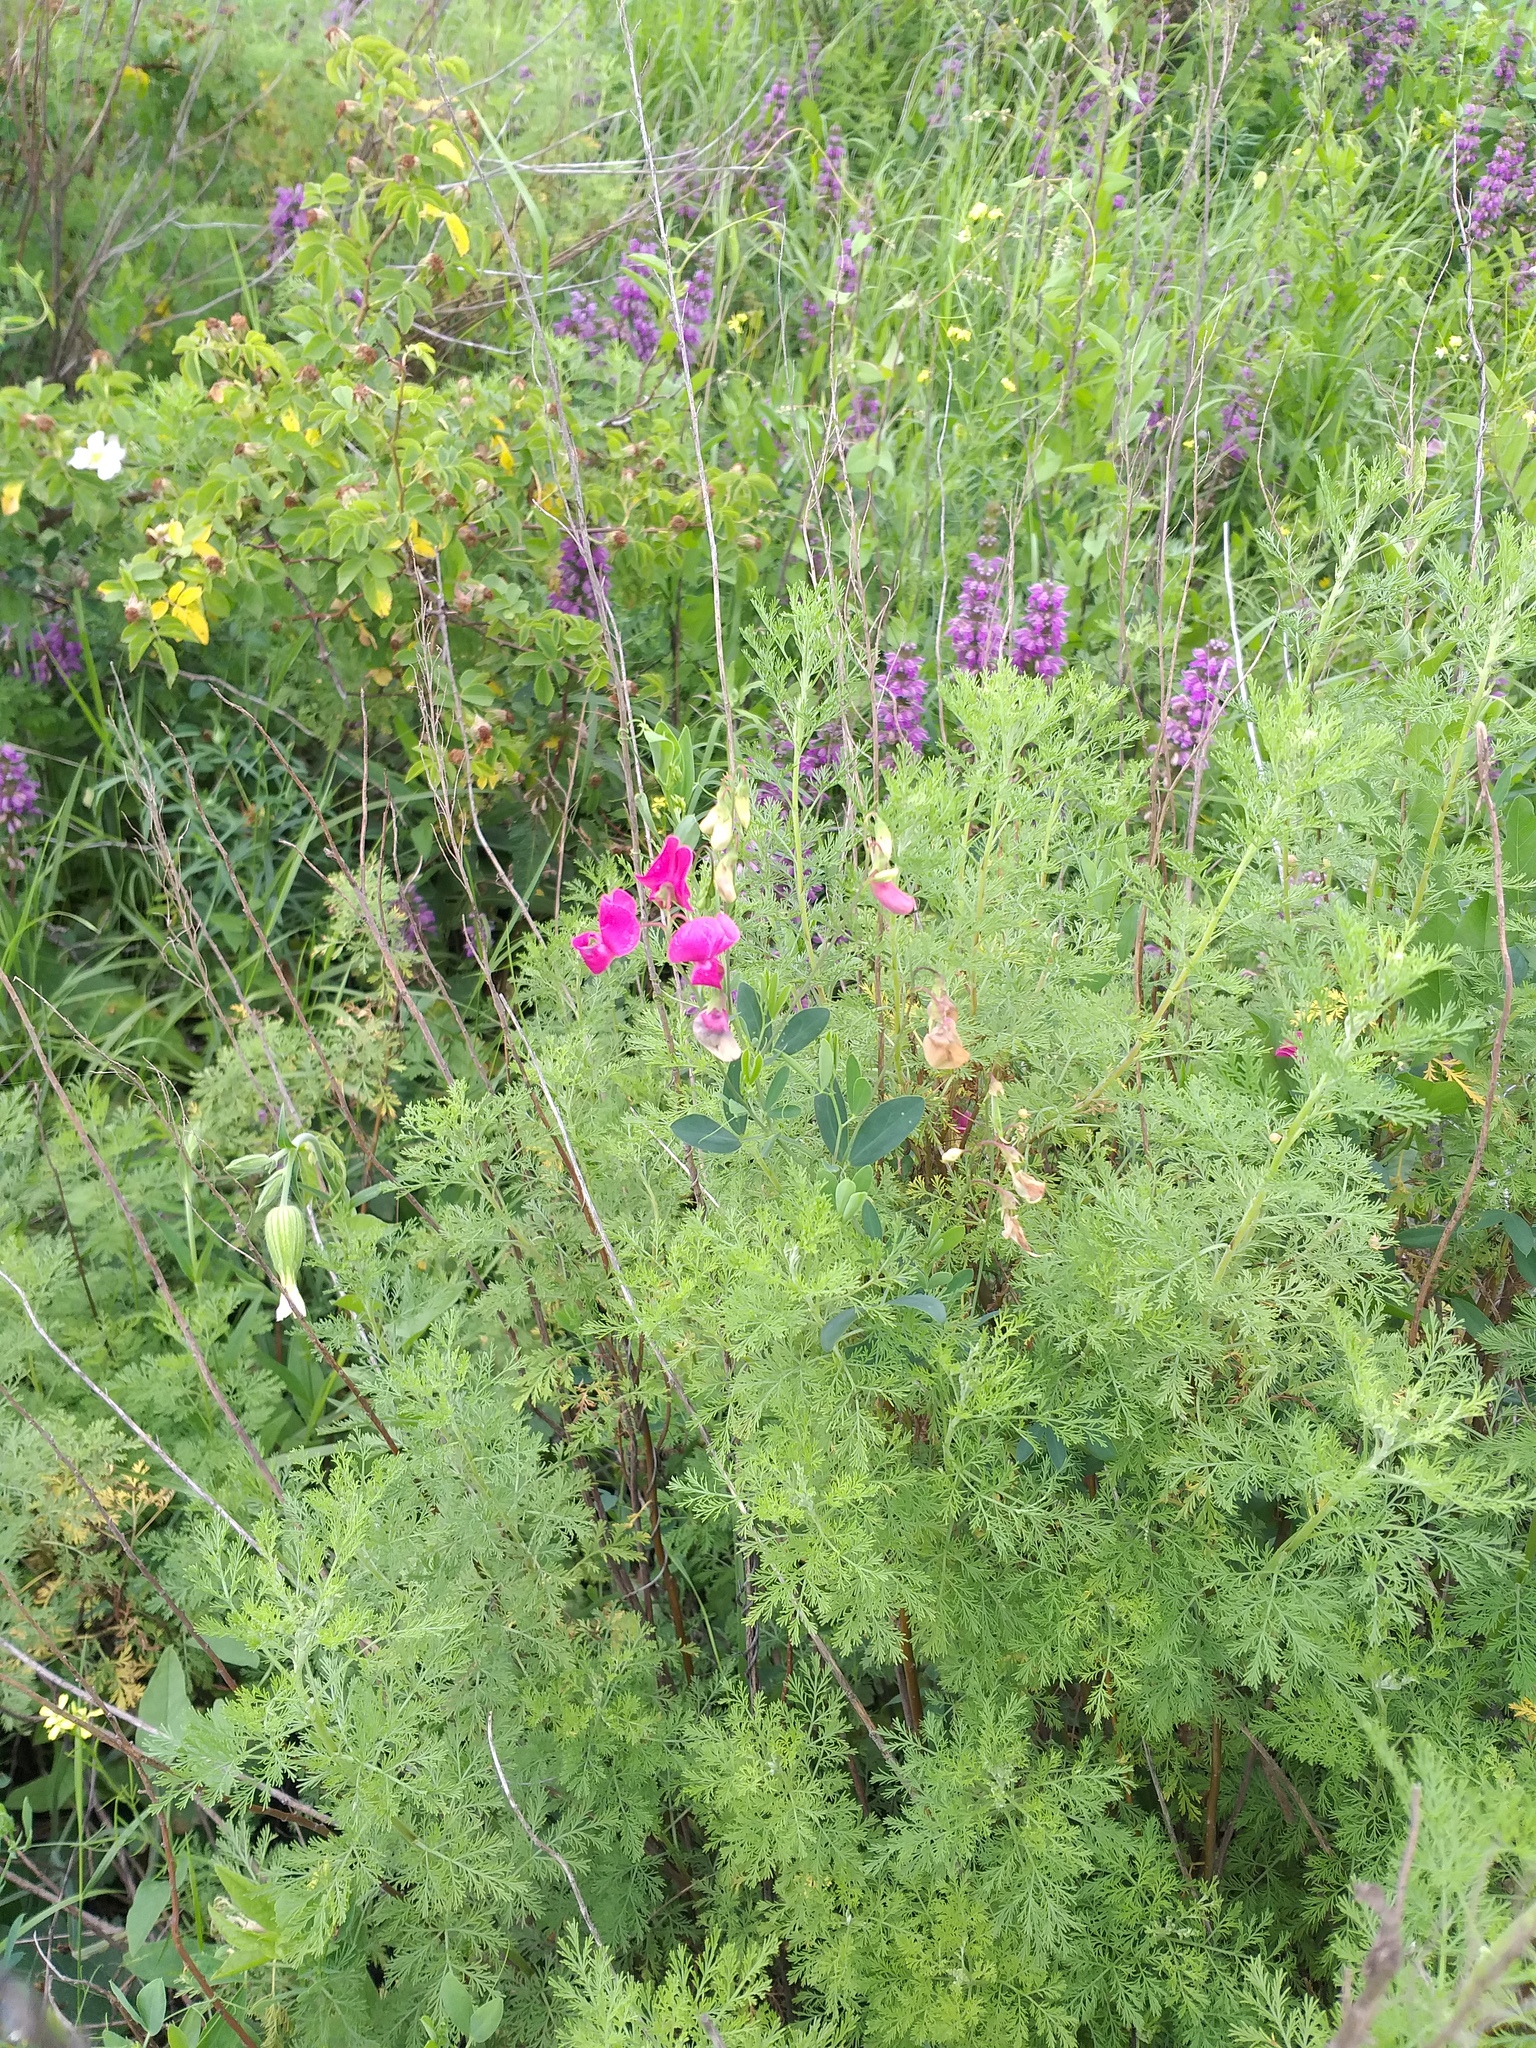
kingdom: Plantae
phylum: Tracheophyta
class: Magnoliopsida
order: Fabales
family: Fabaceae
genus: Lathyrus
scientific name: Lathyrus tuberosus
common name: Tuberous pea
